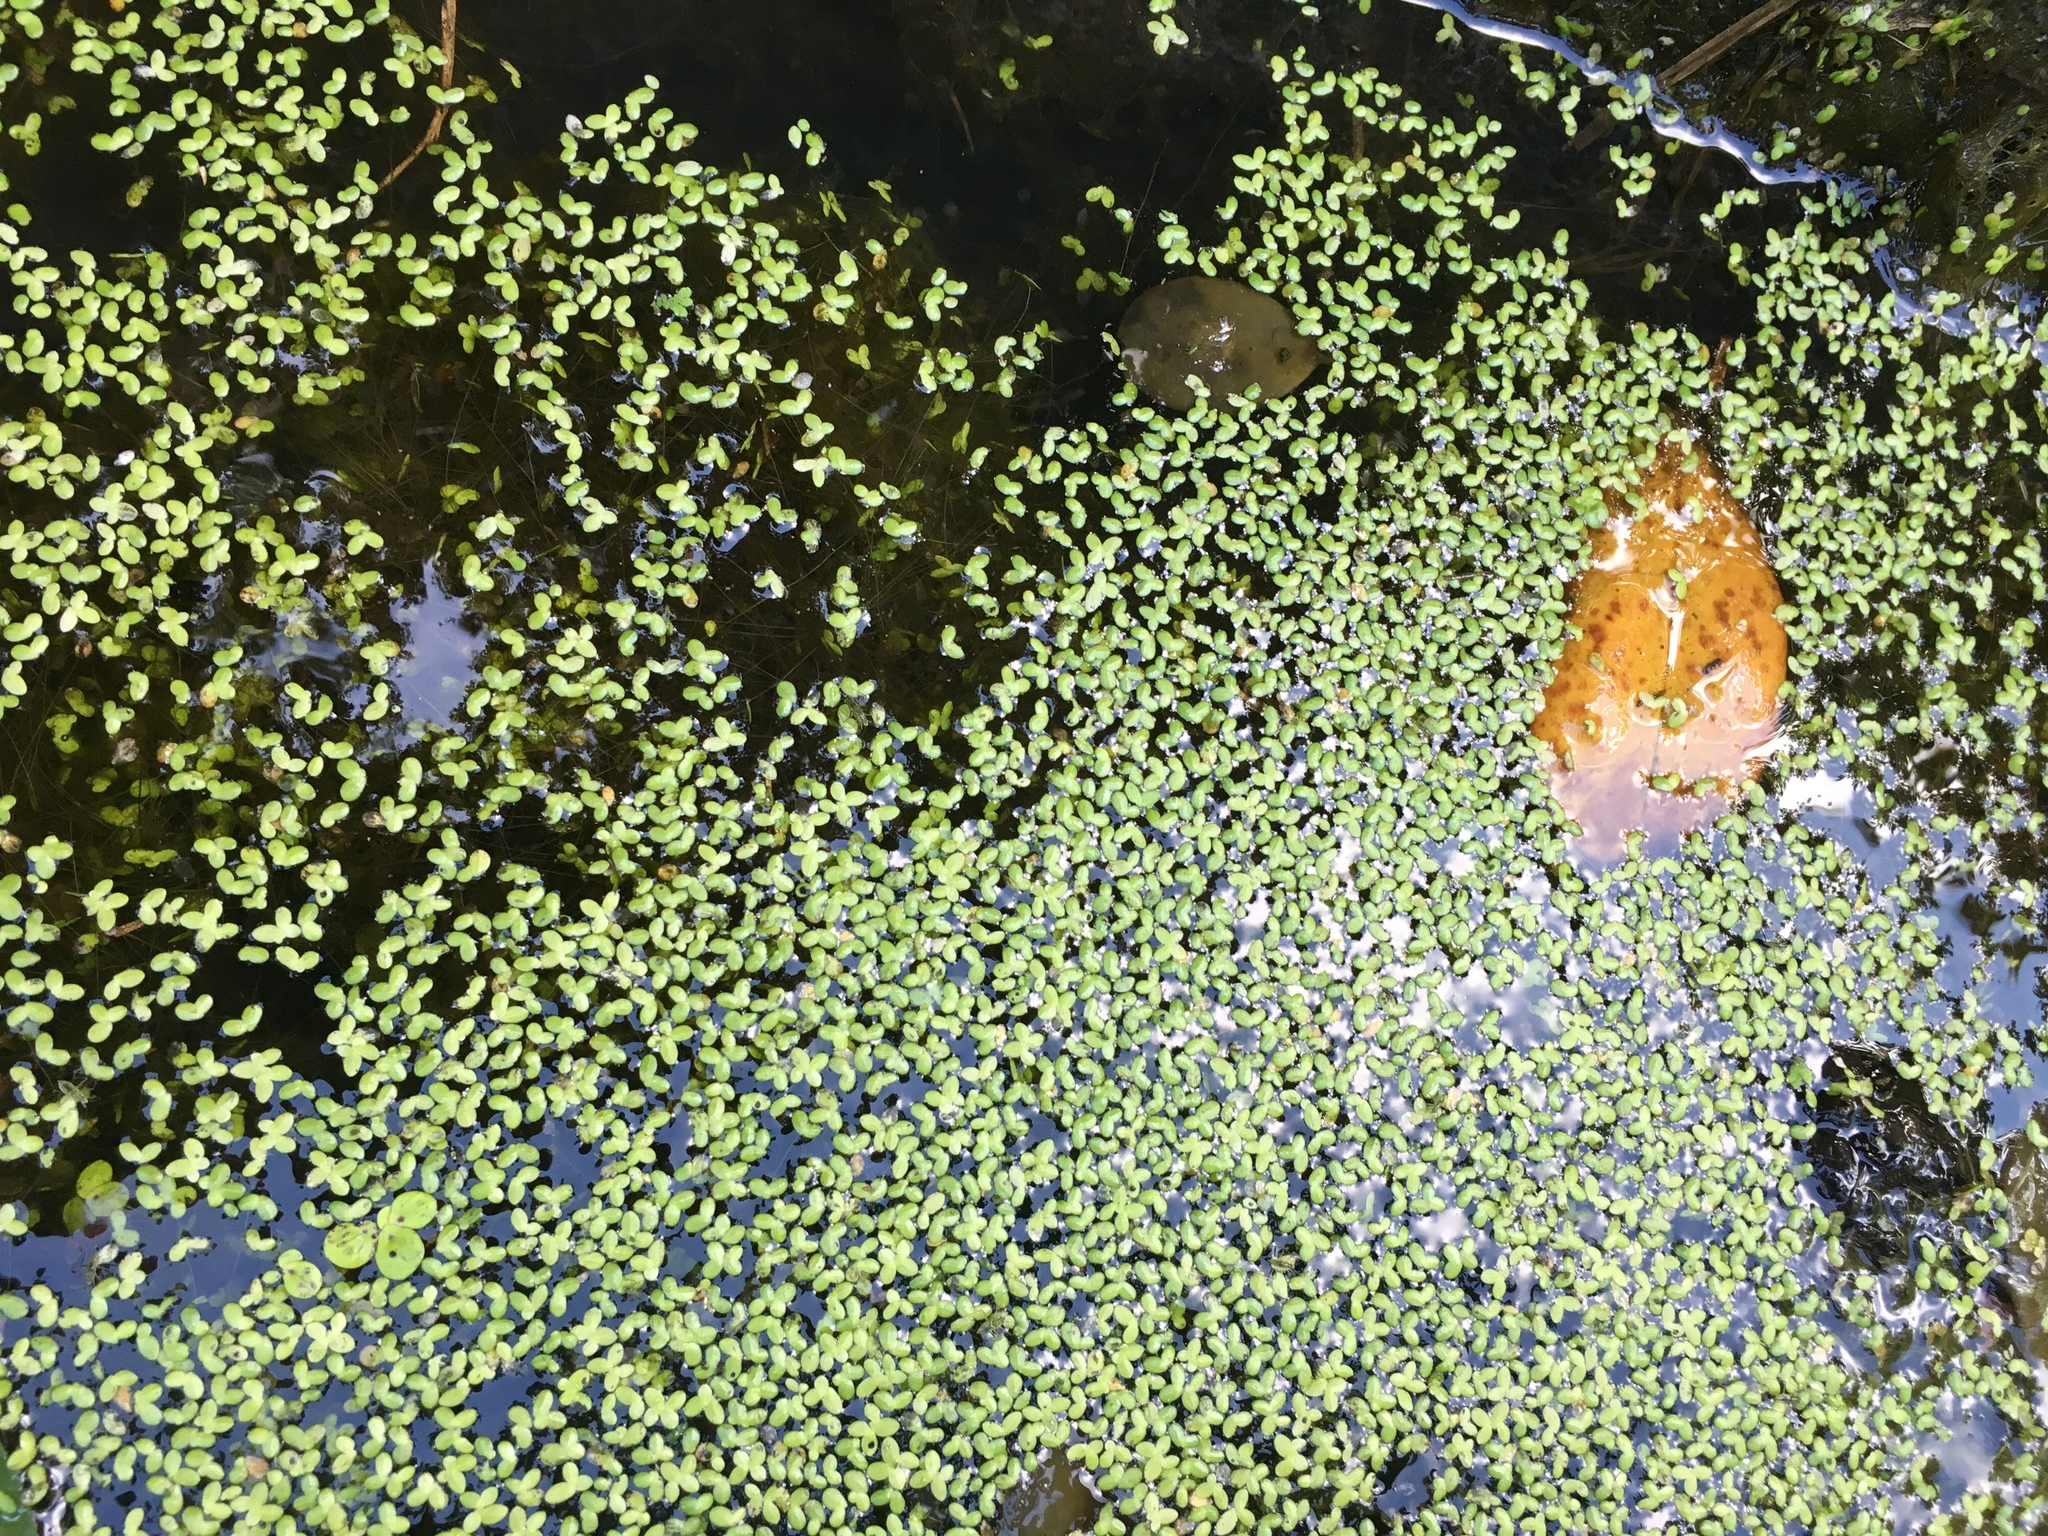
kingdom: Plantae
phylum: Tracheophyta
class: Liliopsida
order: Alismatales
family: Araceae
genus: Lemna
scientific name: Lemna minor
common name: Common duckweed
